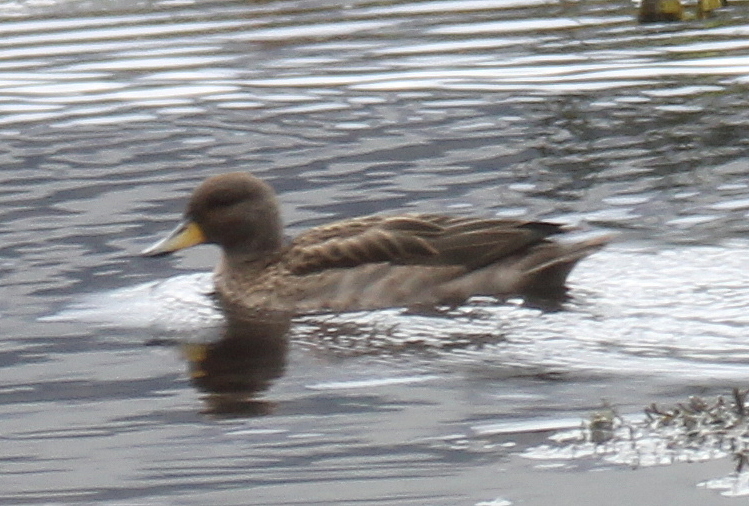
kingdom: Animalia
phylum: Chordata
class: Aves
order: Anseriformes
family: Anatidae
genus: Anas
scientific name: Anas flavirostris
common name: Yellow-billed teal
